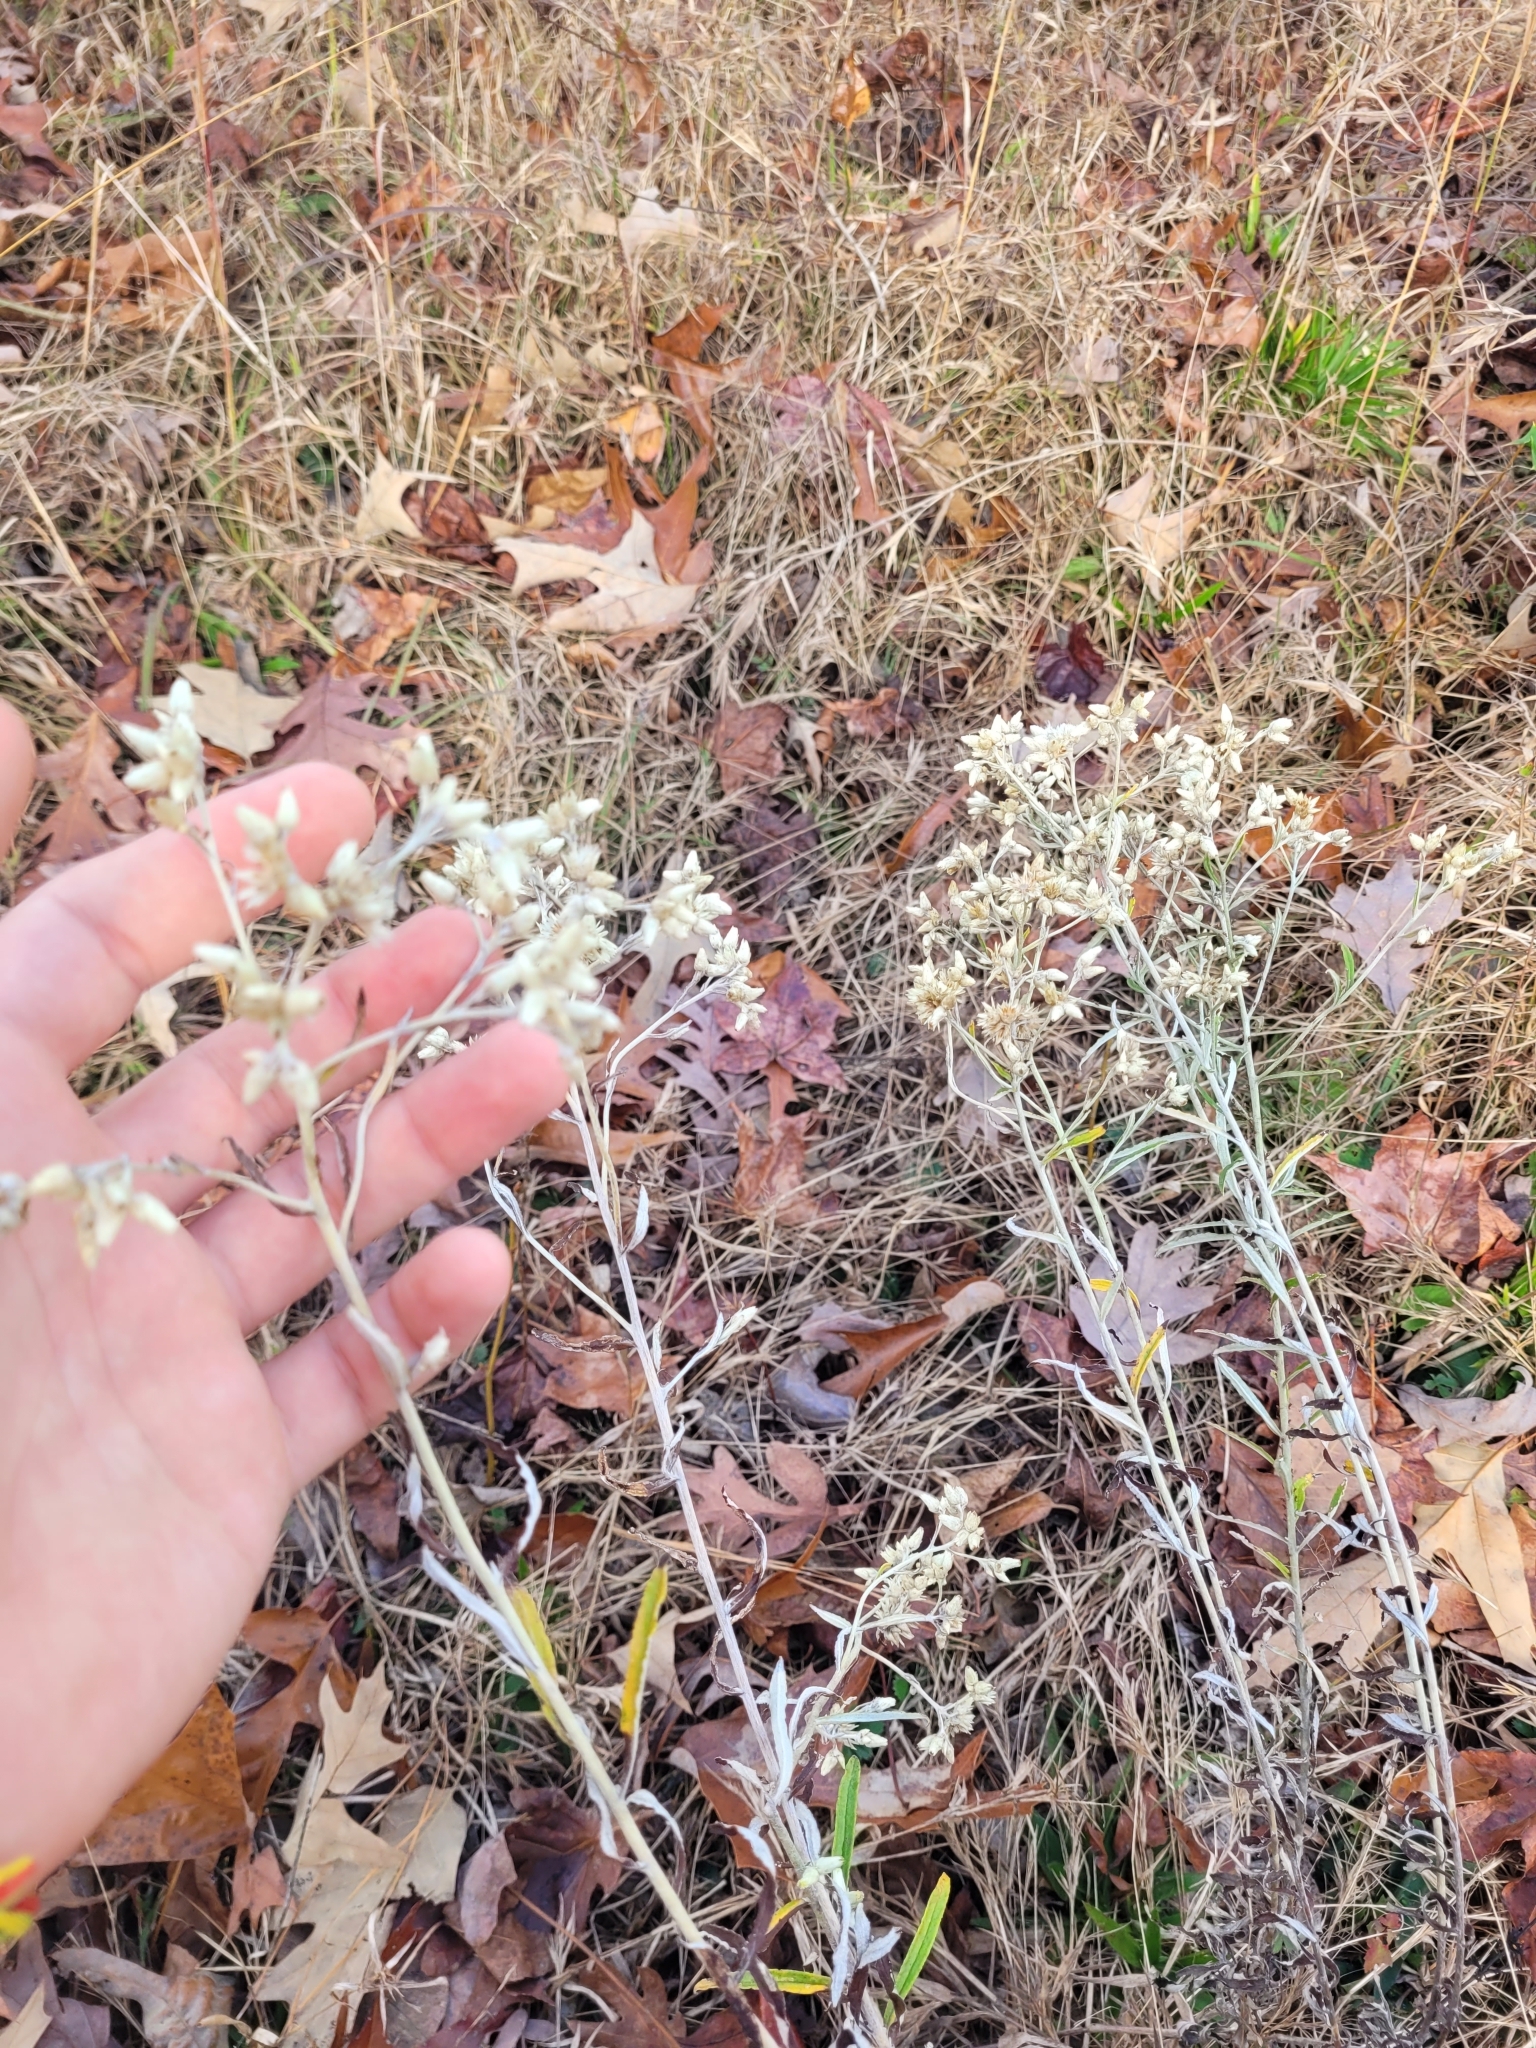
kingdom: Plantae
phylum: Tracheophyta
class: Magnoliopsida
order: Asterales
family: Asteraceae
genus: Pseudognaphalium
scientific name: Pseudognaphalium obtusifolium
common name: Eastern rabbit-tobacco
